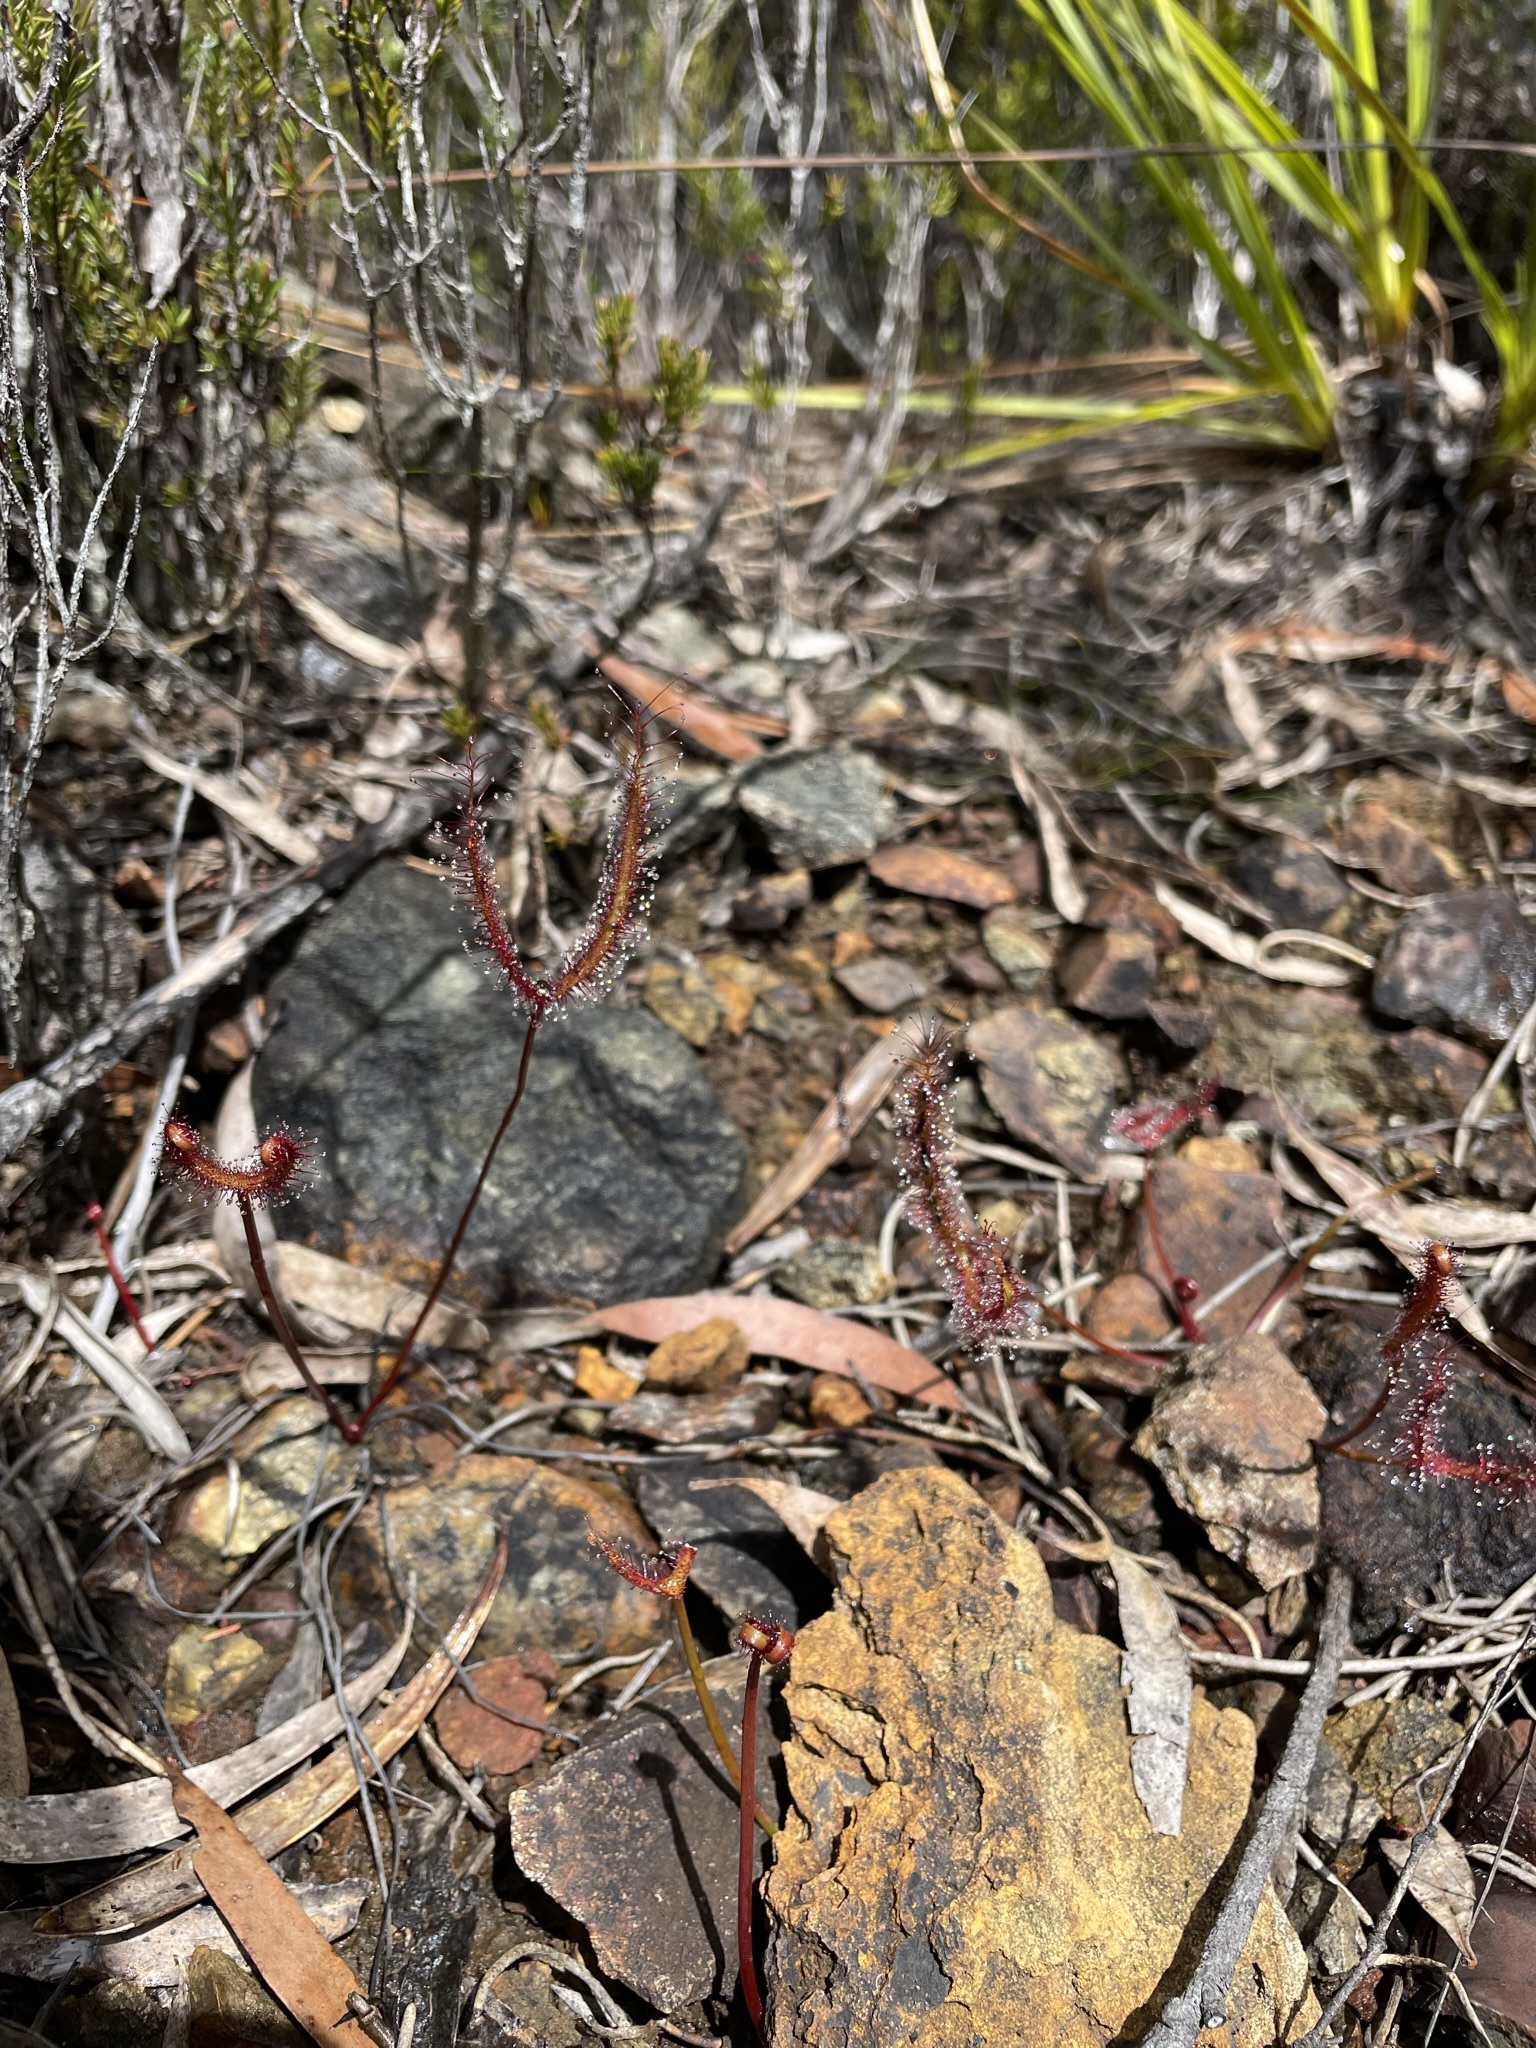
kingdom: Plantae
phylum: Tracheophyta
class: Magnoliopsida
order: Caryophyllales
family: Droseraceae
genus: Drosera
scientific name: Drosera binata
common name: Forked sundew
